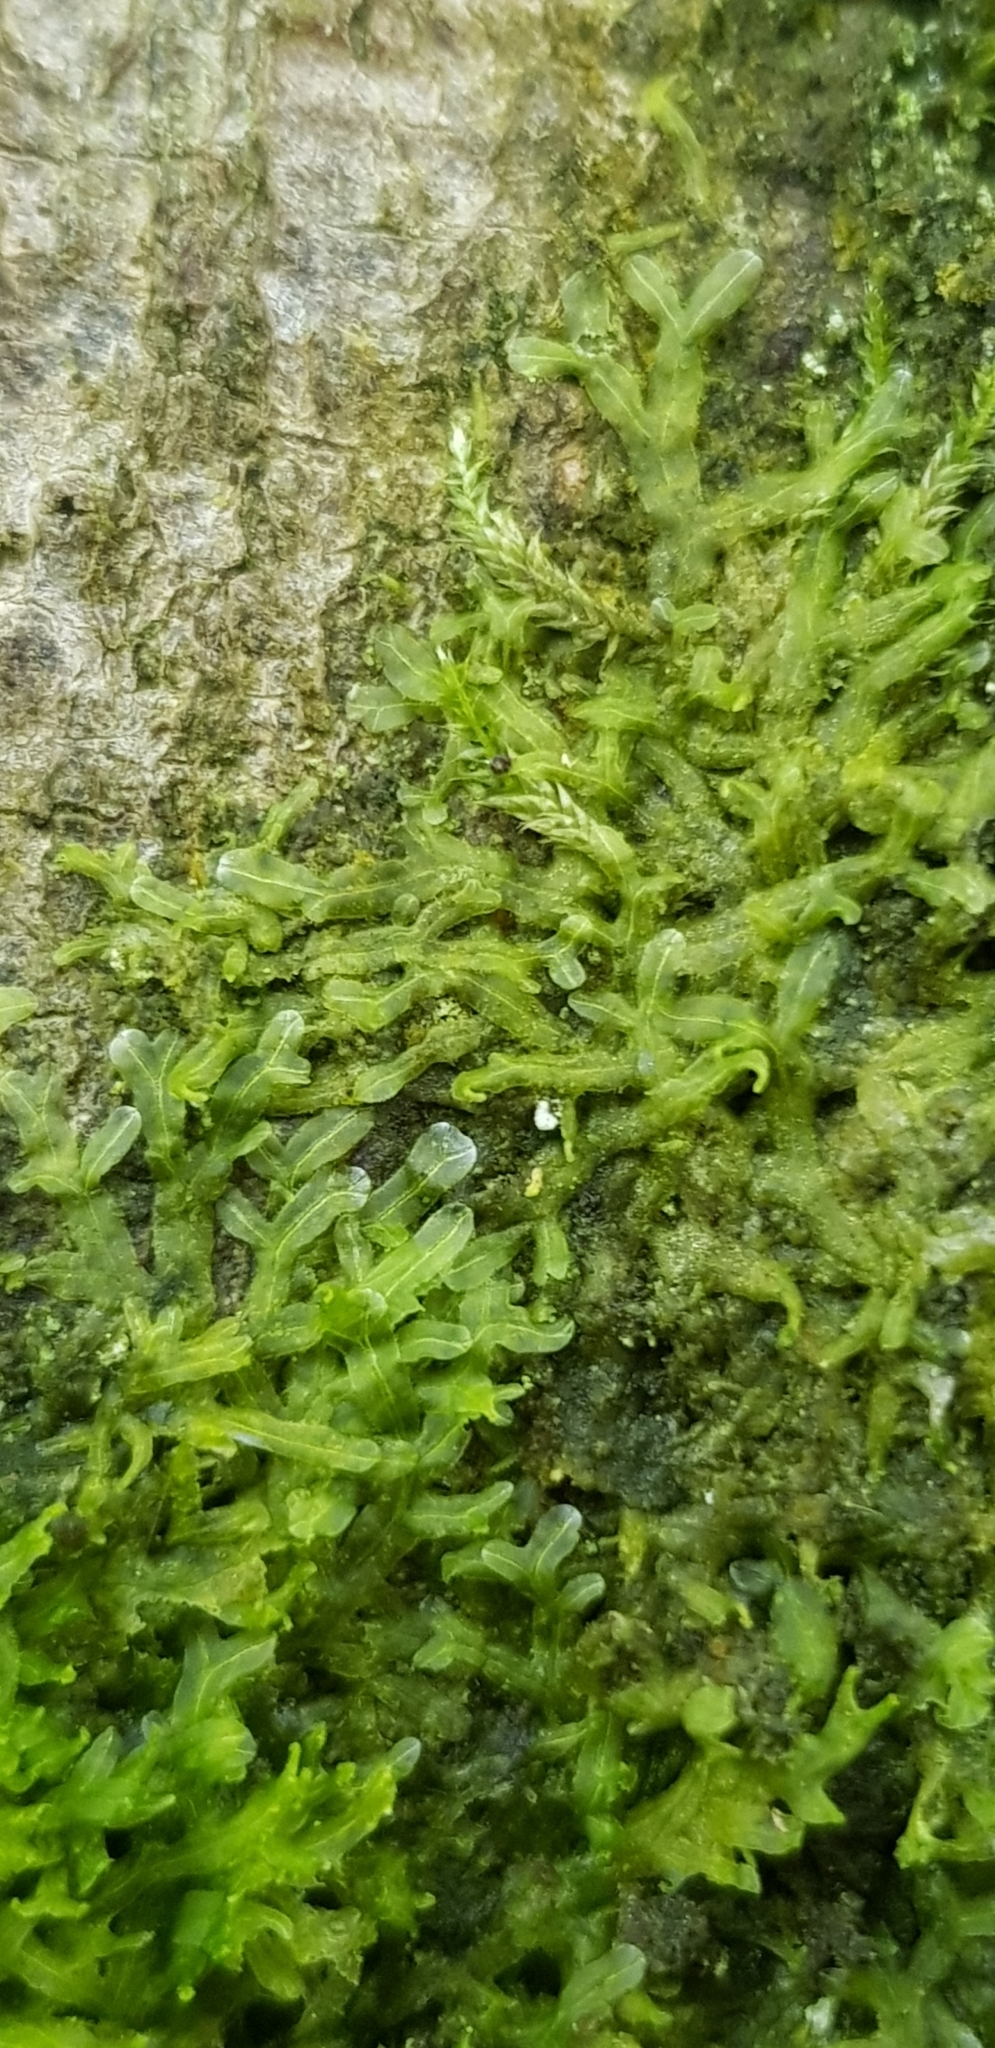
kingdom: Plantae
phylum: Marchantiophyta
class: Jungermanniopsida
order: Metzgeriales
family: Metzgeriaceae
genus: Metzgeria
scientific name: Metzgeria furcata
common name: Forked veilwort
